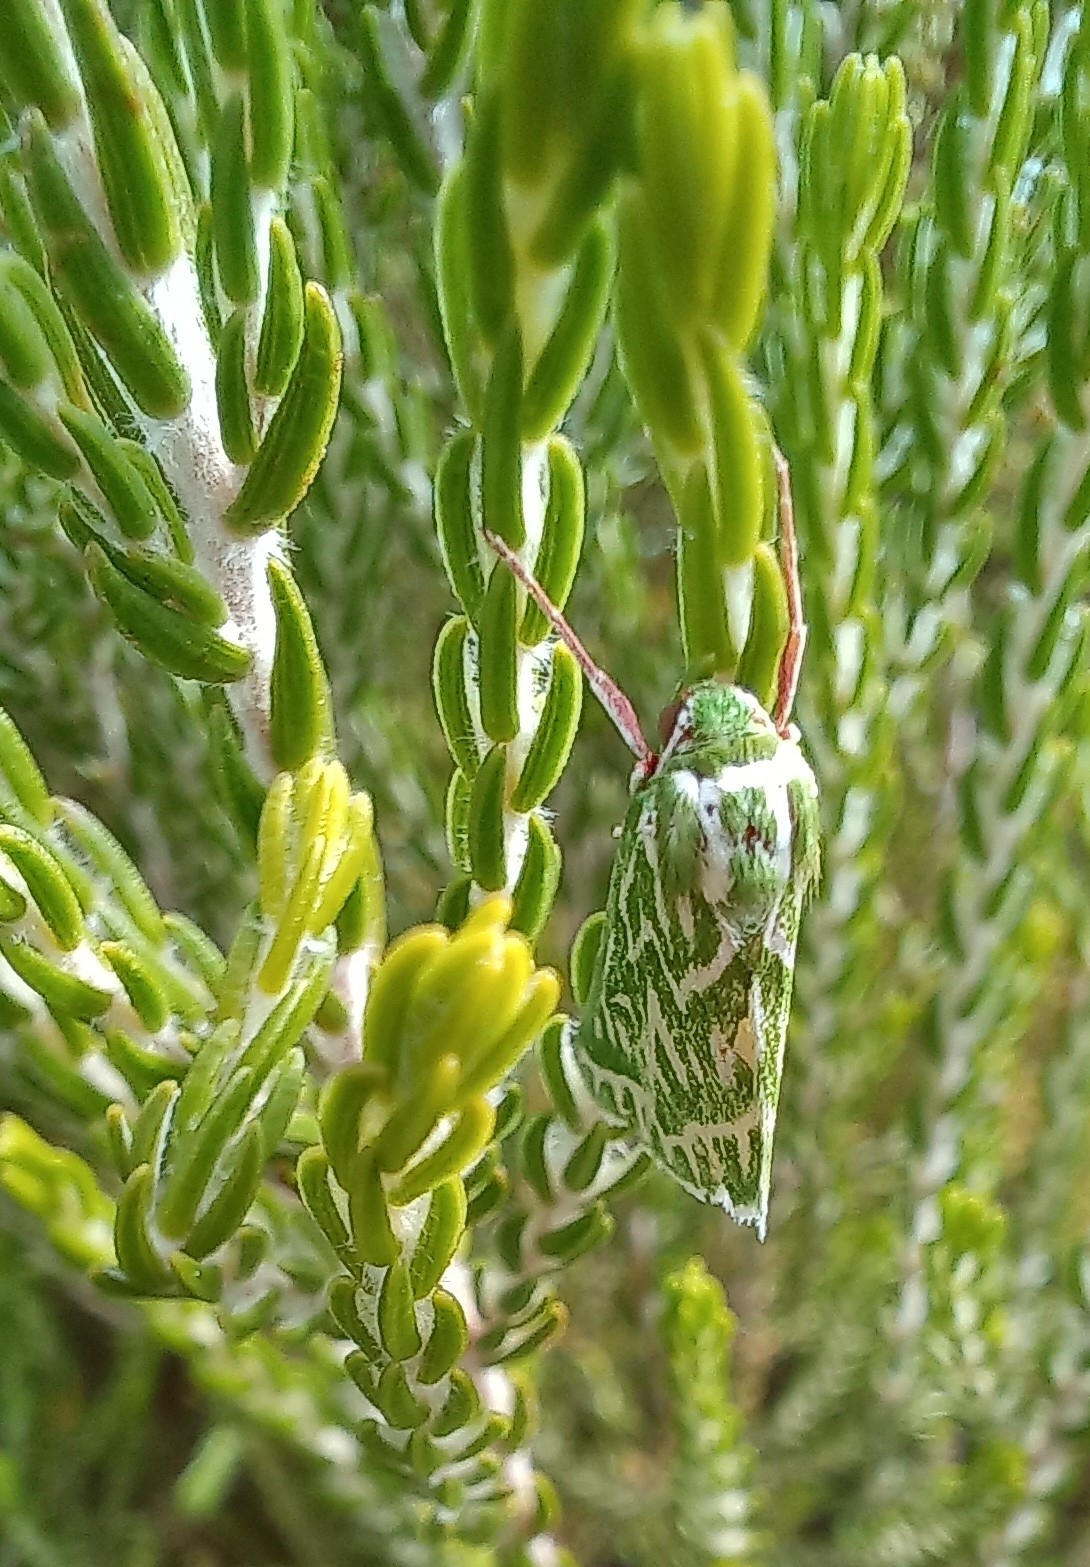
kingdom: Animalia
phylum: Arthropoda
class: Insecta
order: Lepidoptera
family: Geometridae
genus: Dichroma
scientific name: Dichroma equestralis
